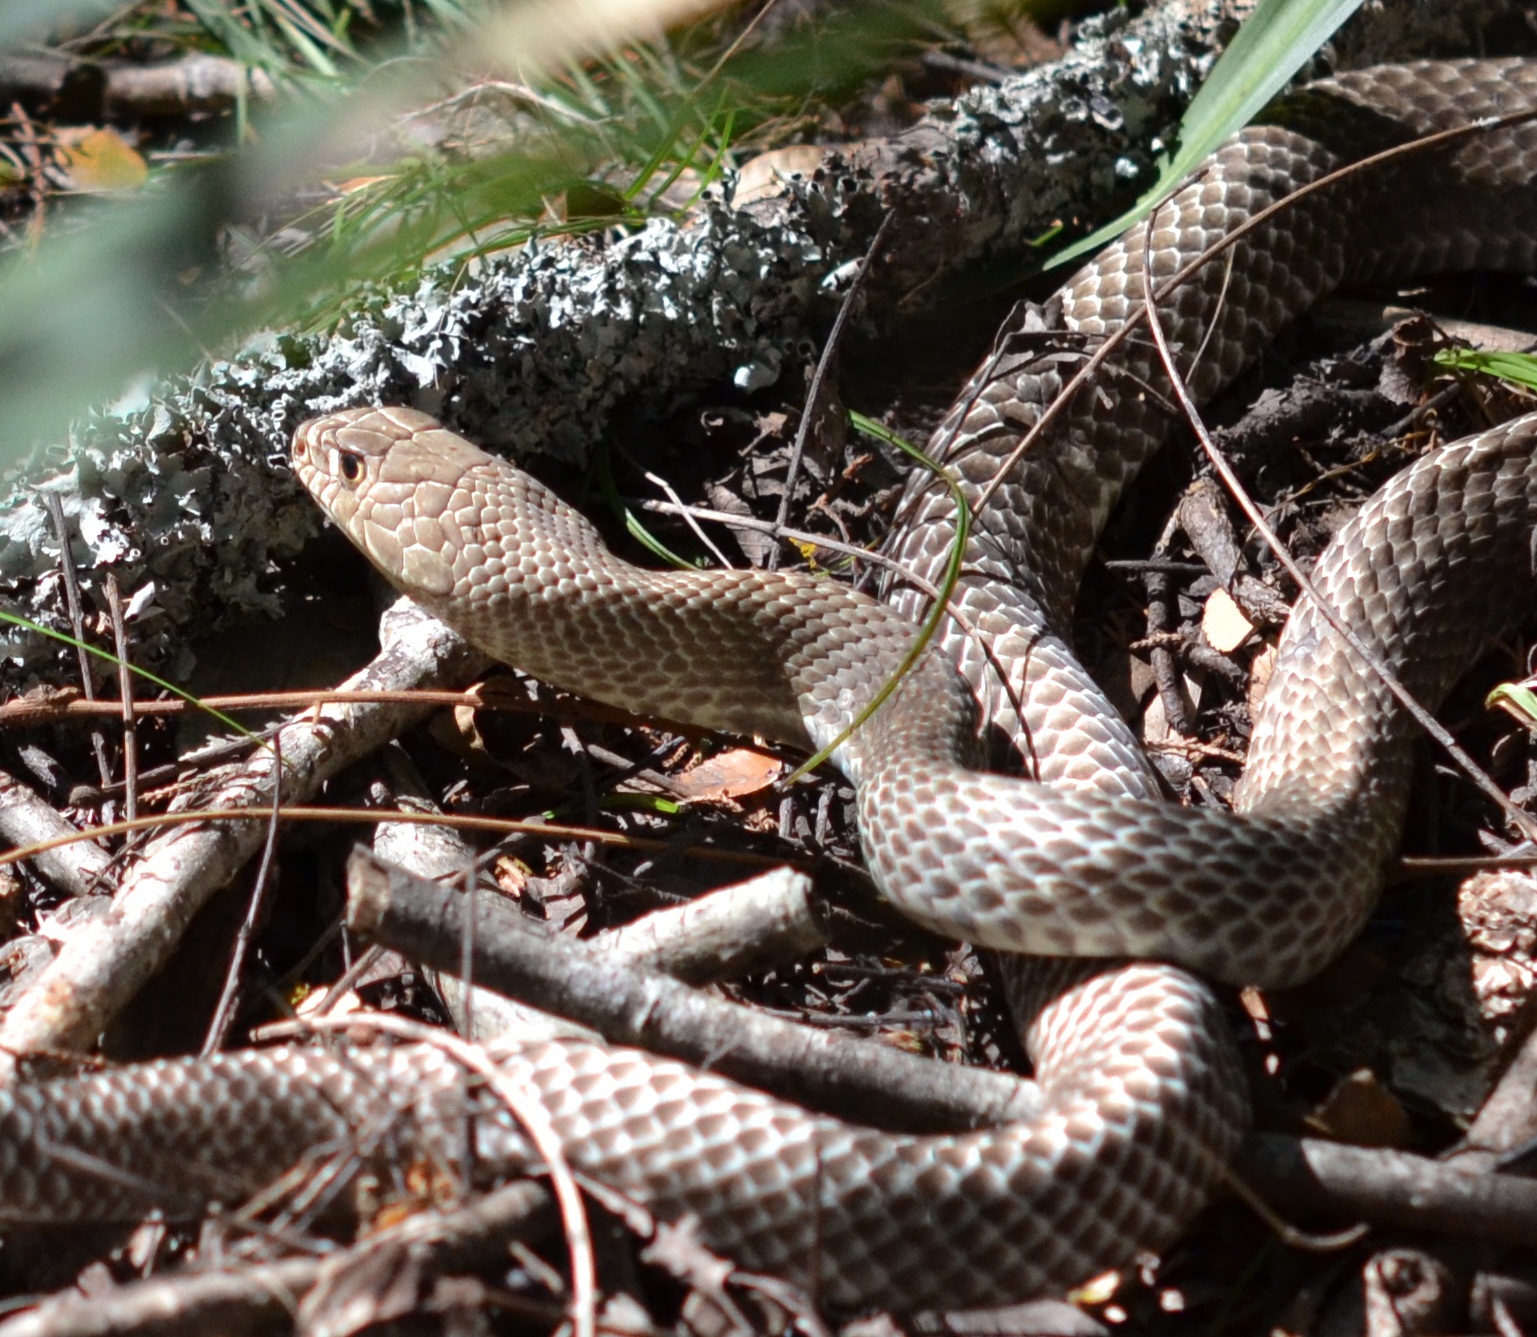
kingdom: Animalia
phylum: Chordata
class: Squamata
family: Colubridae
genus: Masticophis
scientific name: Masticophis flagellum
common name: Coachwhip
